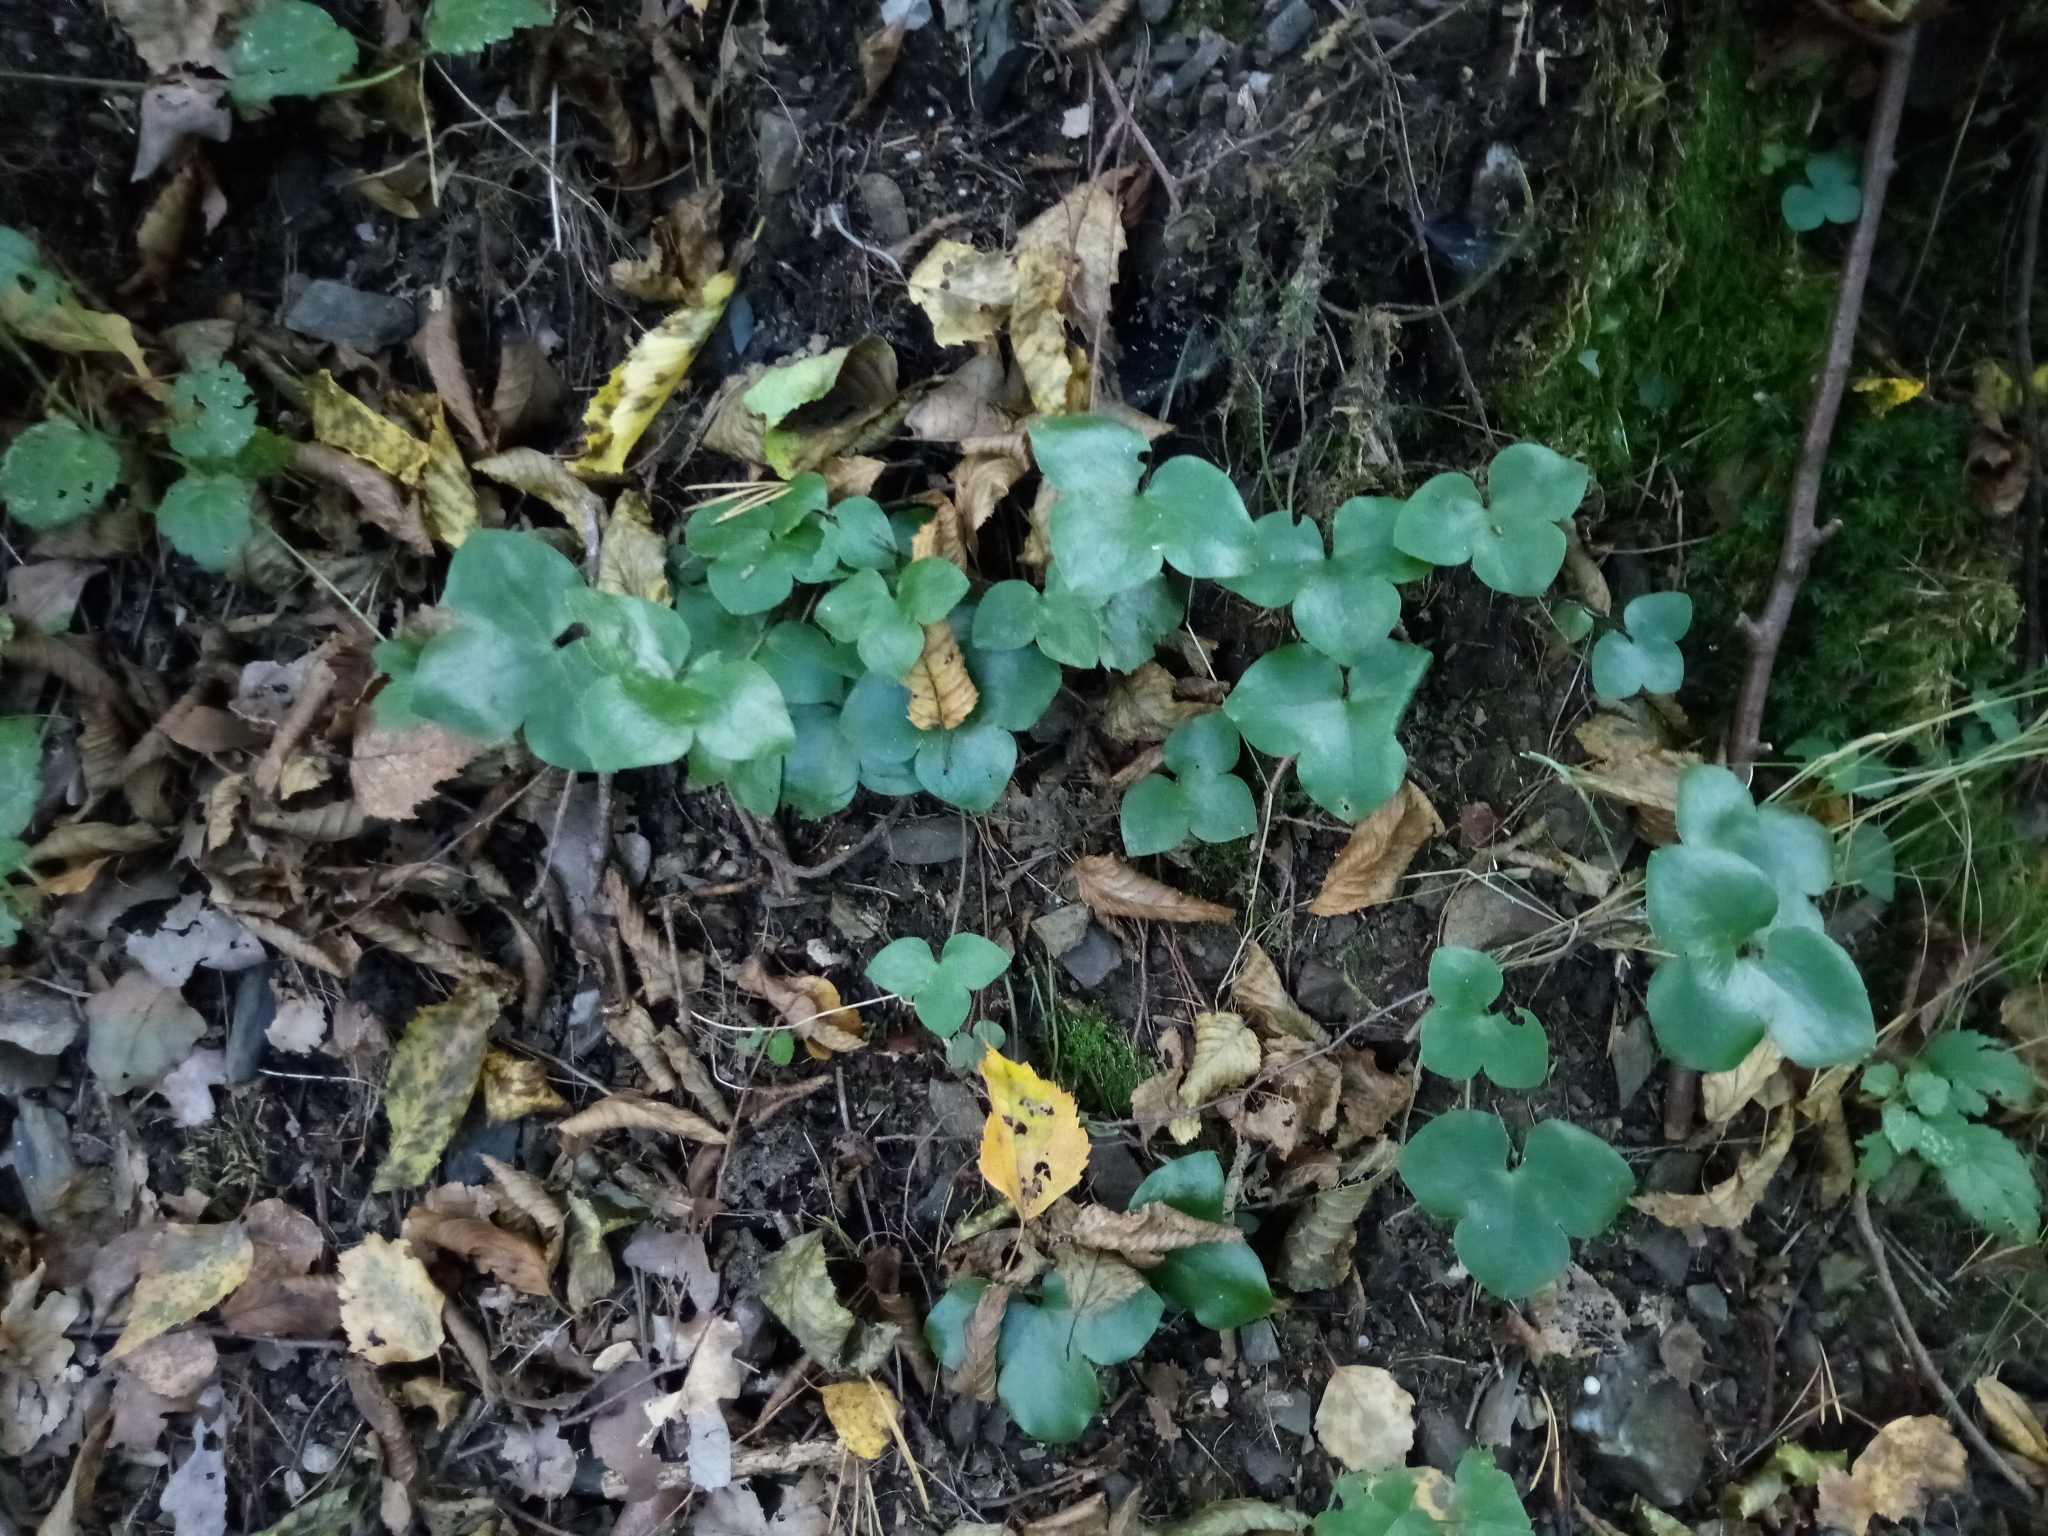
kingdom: Plantae
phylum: Tracheophyta
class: Magnoliopsida
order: Ranunculales
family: Ranunculaceae
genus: Hepatica
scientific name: Hepatica nobilis
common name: Liverleaf
